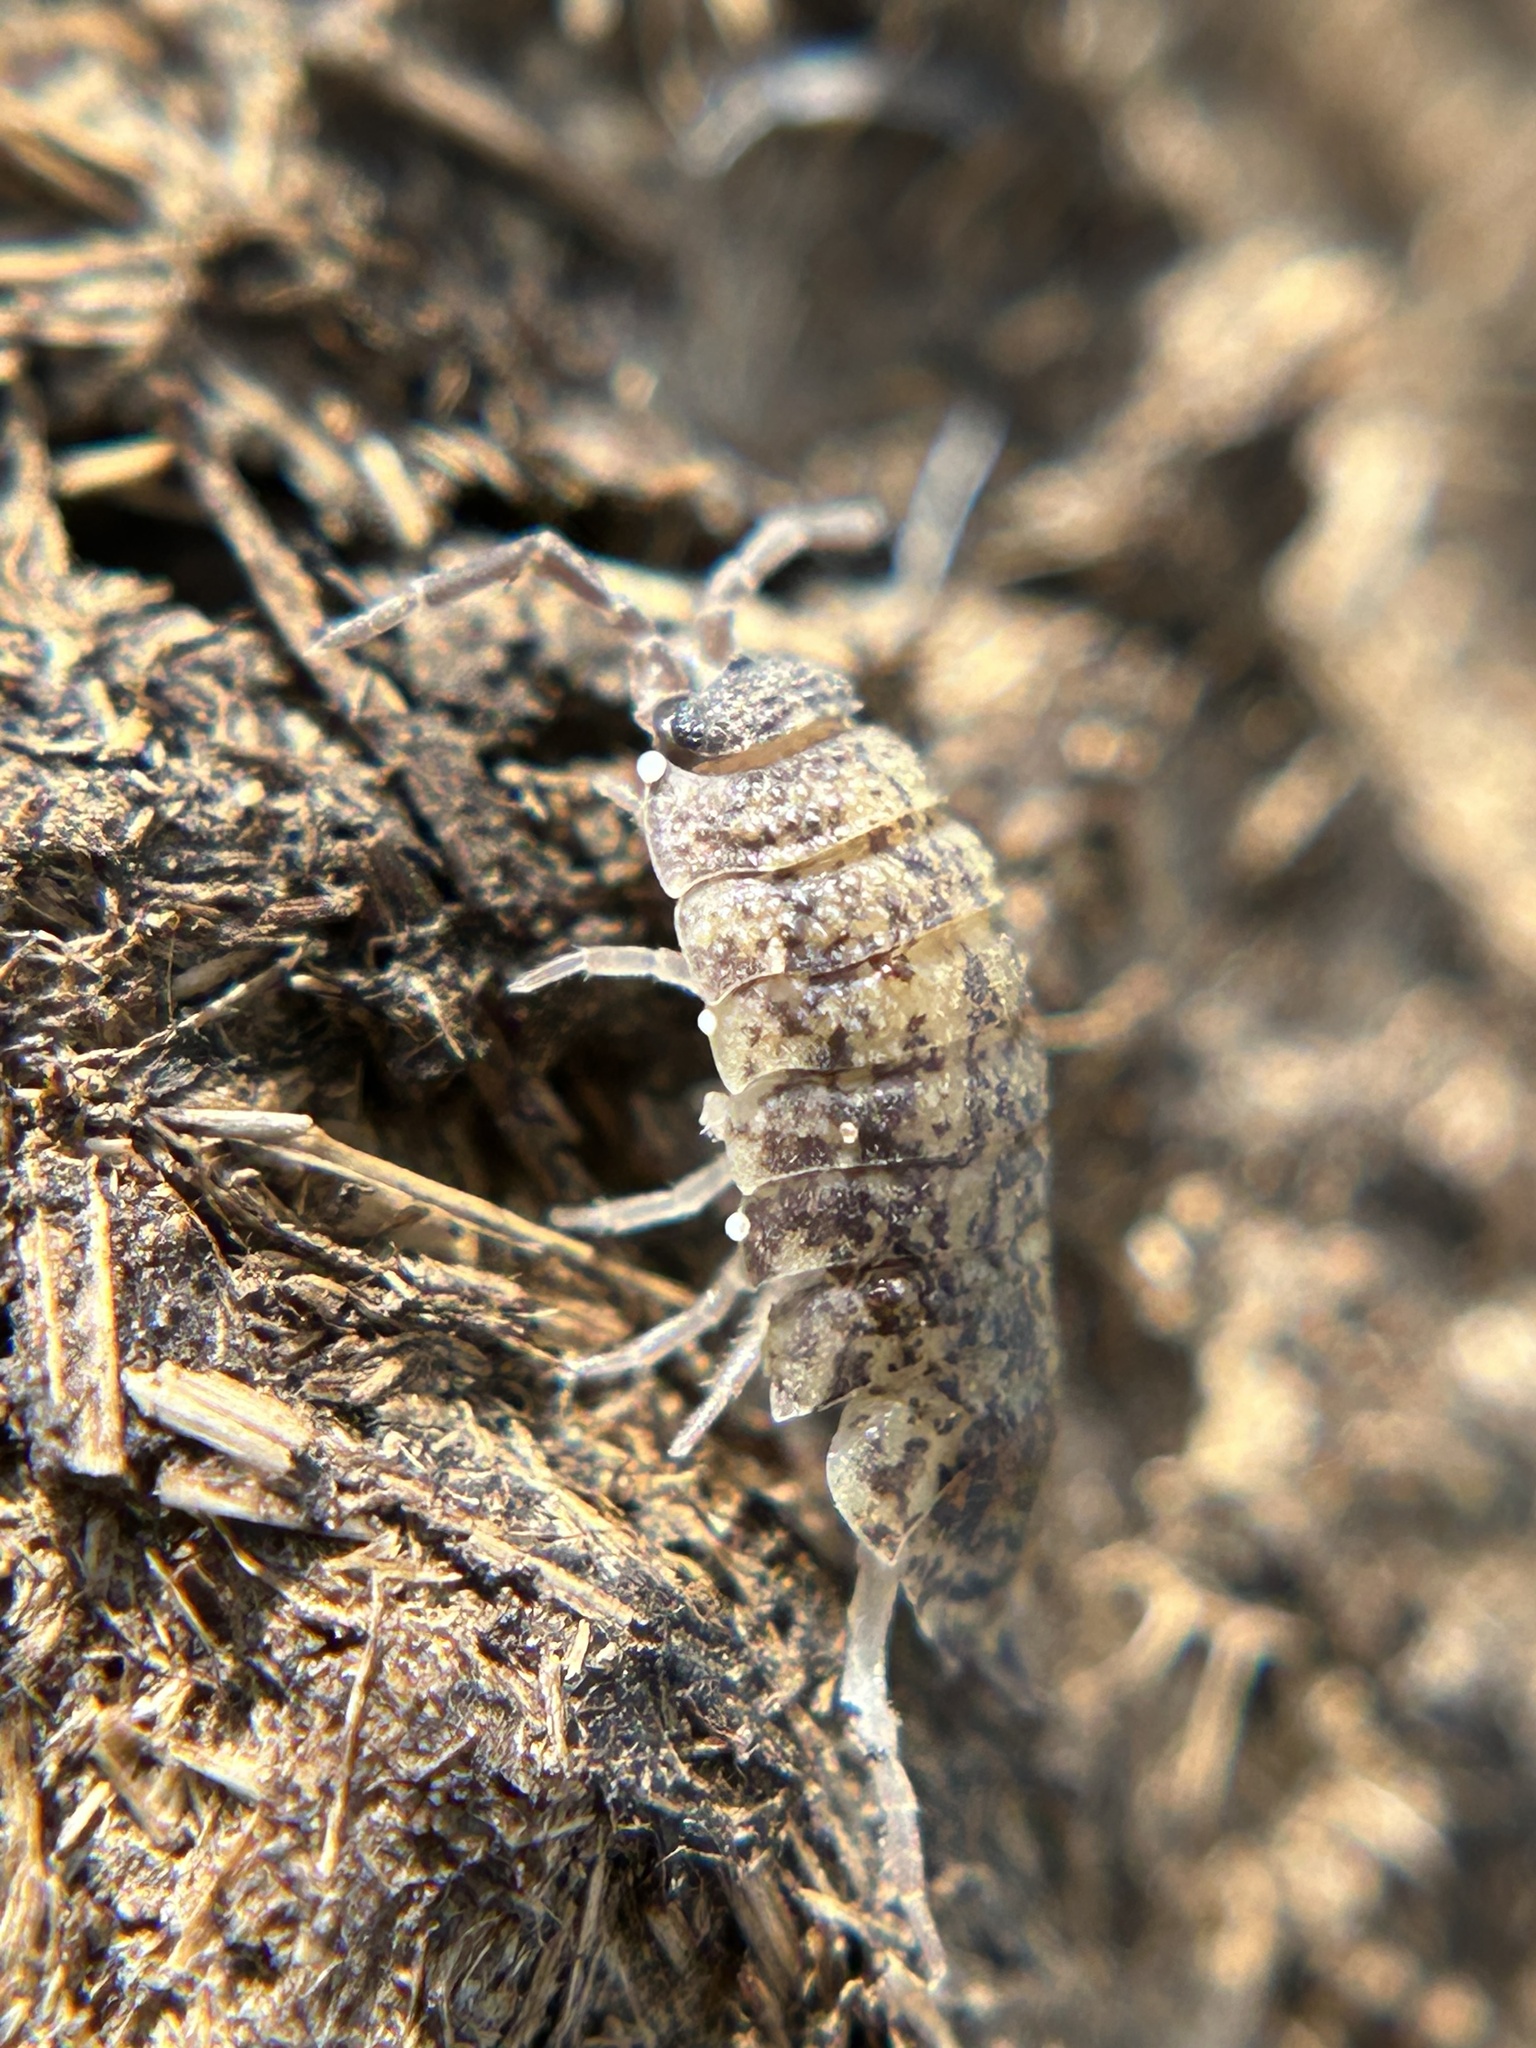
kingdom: Animalia
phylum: Arthropoda
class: Malacostraca
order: Isopoda
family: Porcellionidae
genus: Porcellio
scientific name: Porcellio scaber
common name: Common rough woodlouse
